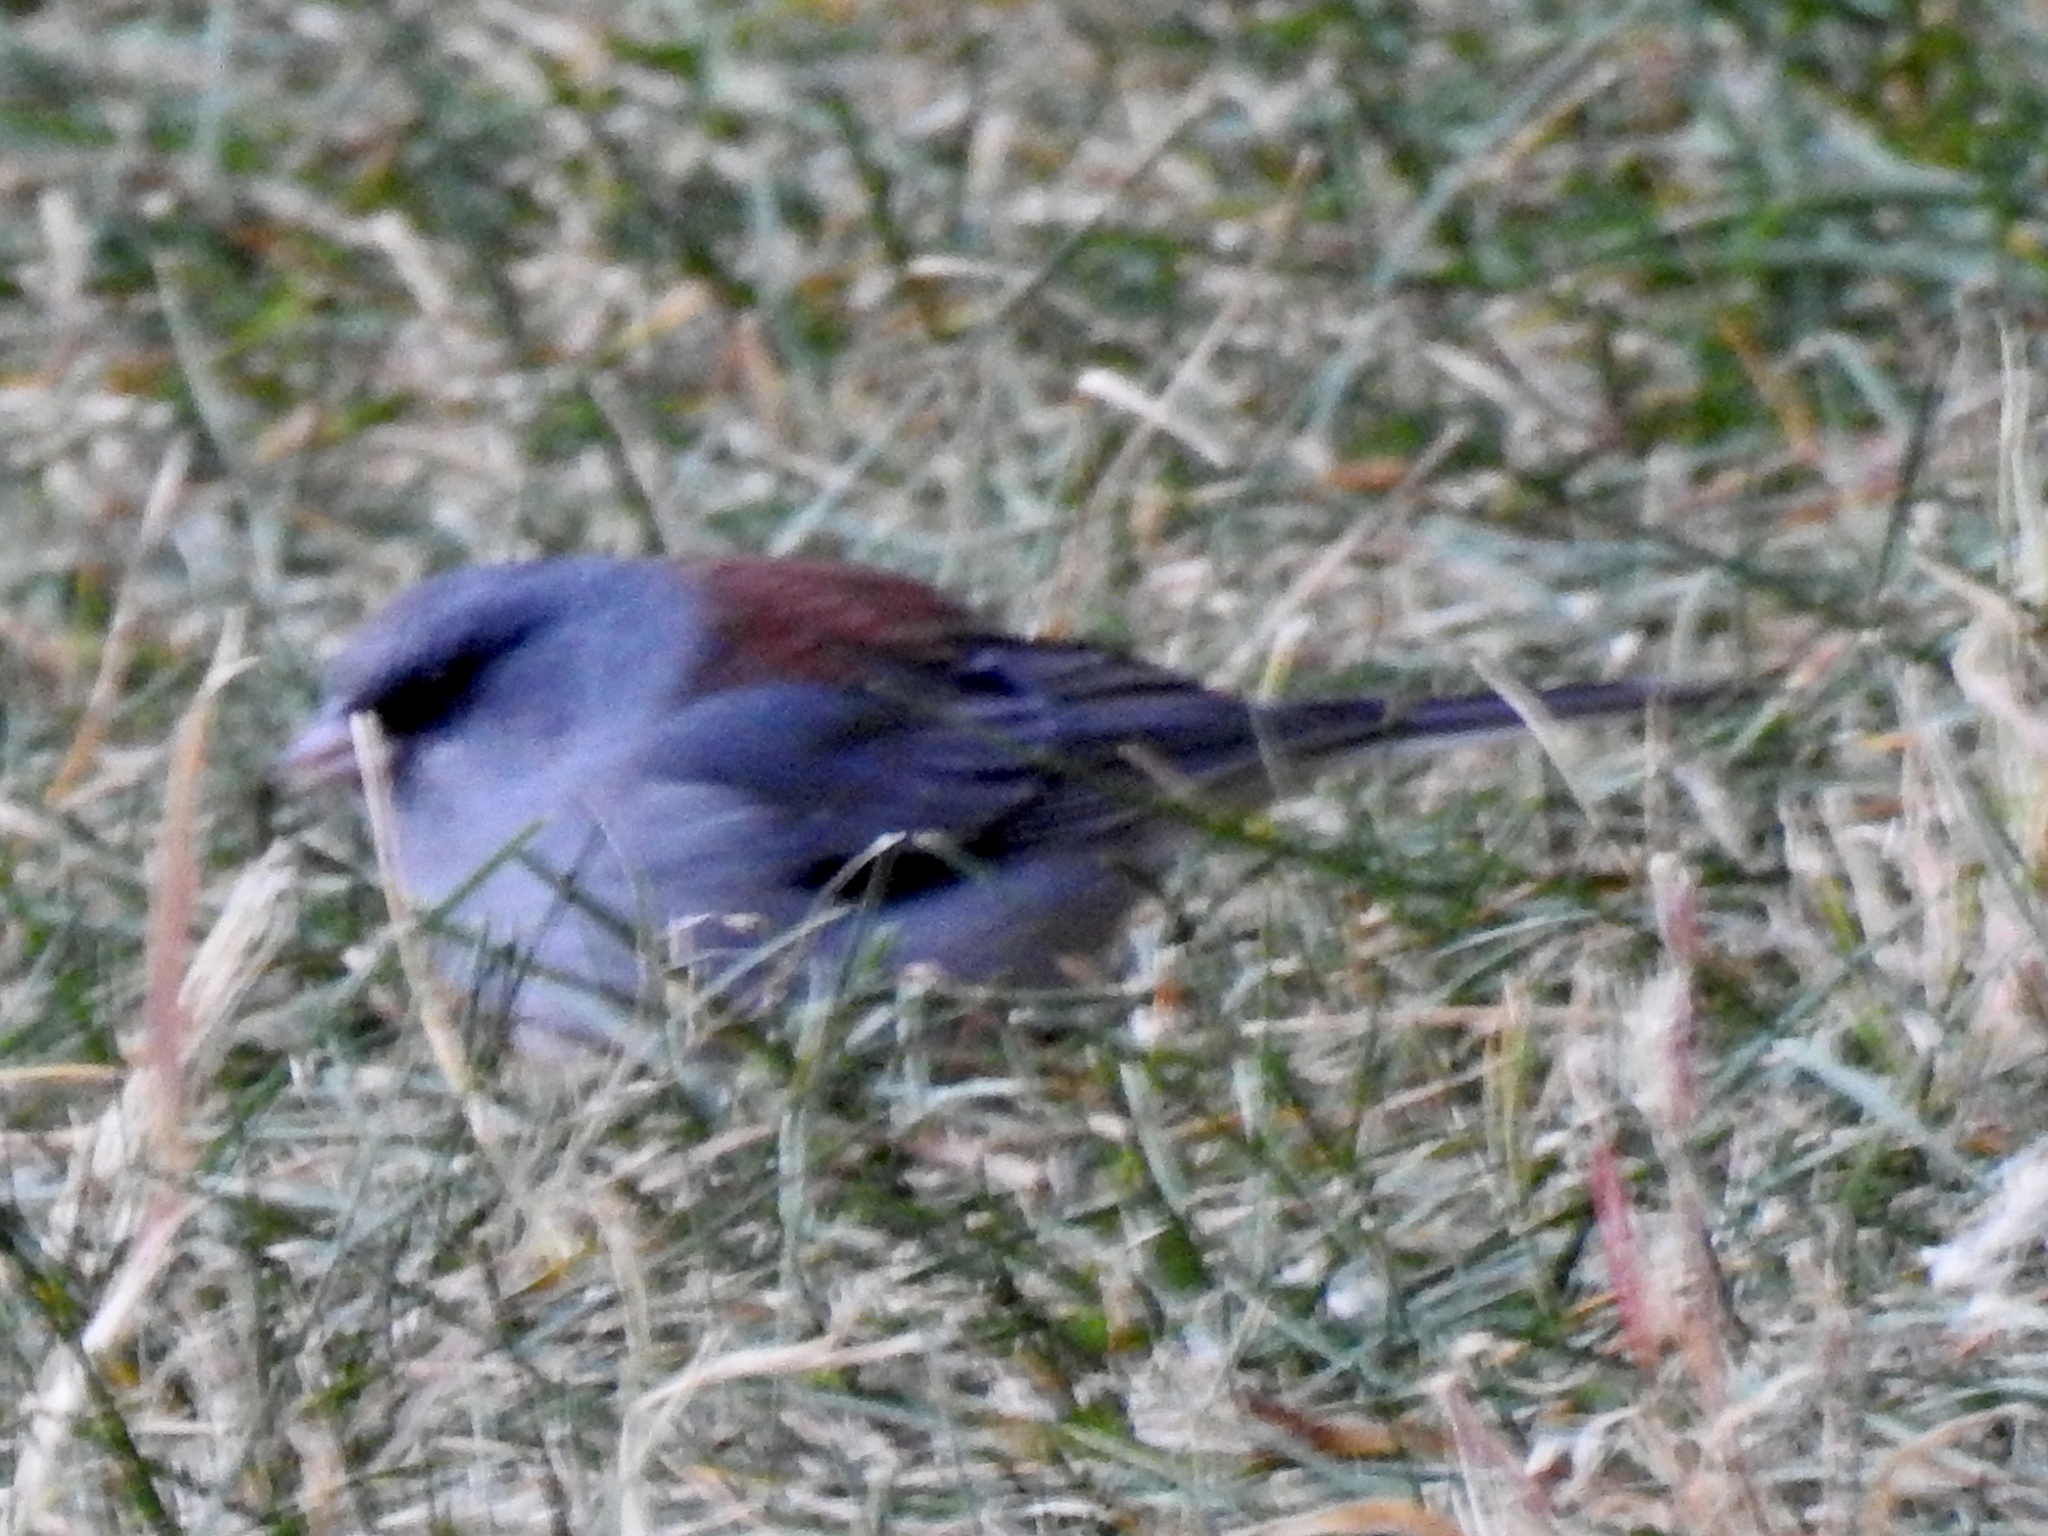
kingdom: Animalia
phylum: Chordata
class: Aves
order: Passeriformes
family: Passerellidae
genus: Junco
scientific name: Junco hyemalis
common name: Dark-eyed junco
